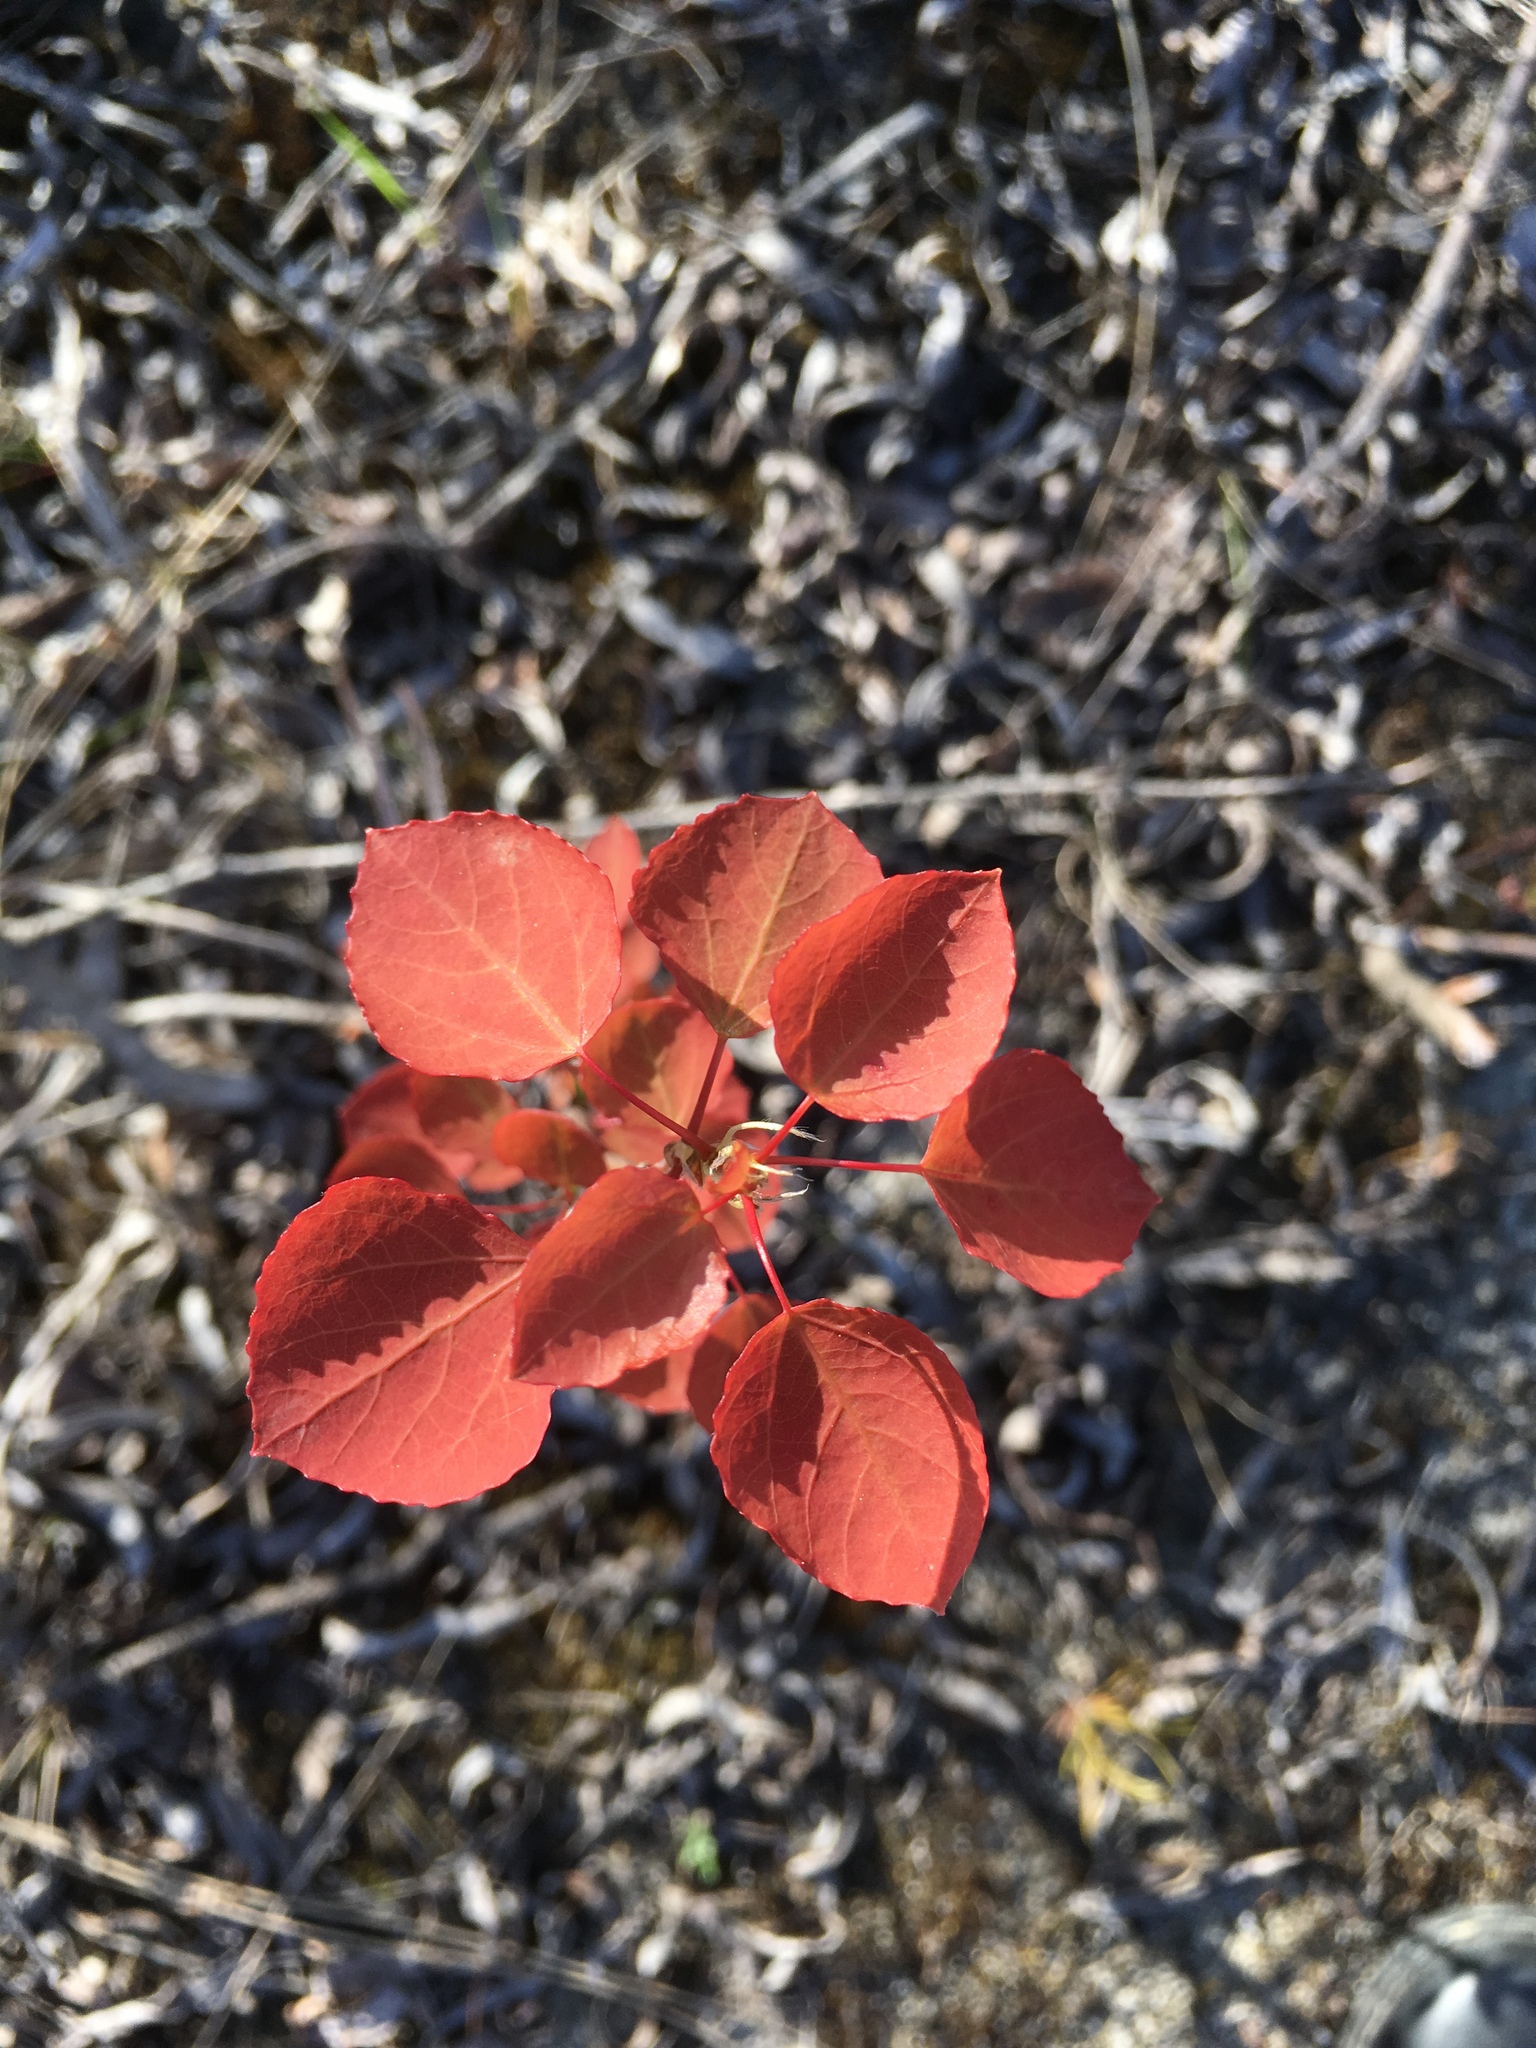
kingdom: Plantae
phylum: Tracheophyta
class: Magnoliopsida
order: Malpighiales
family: Salicaceae
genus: Populus
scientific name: Populus tremula
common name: European aspen
